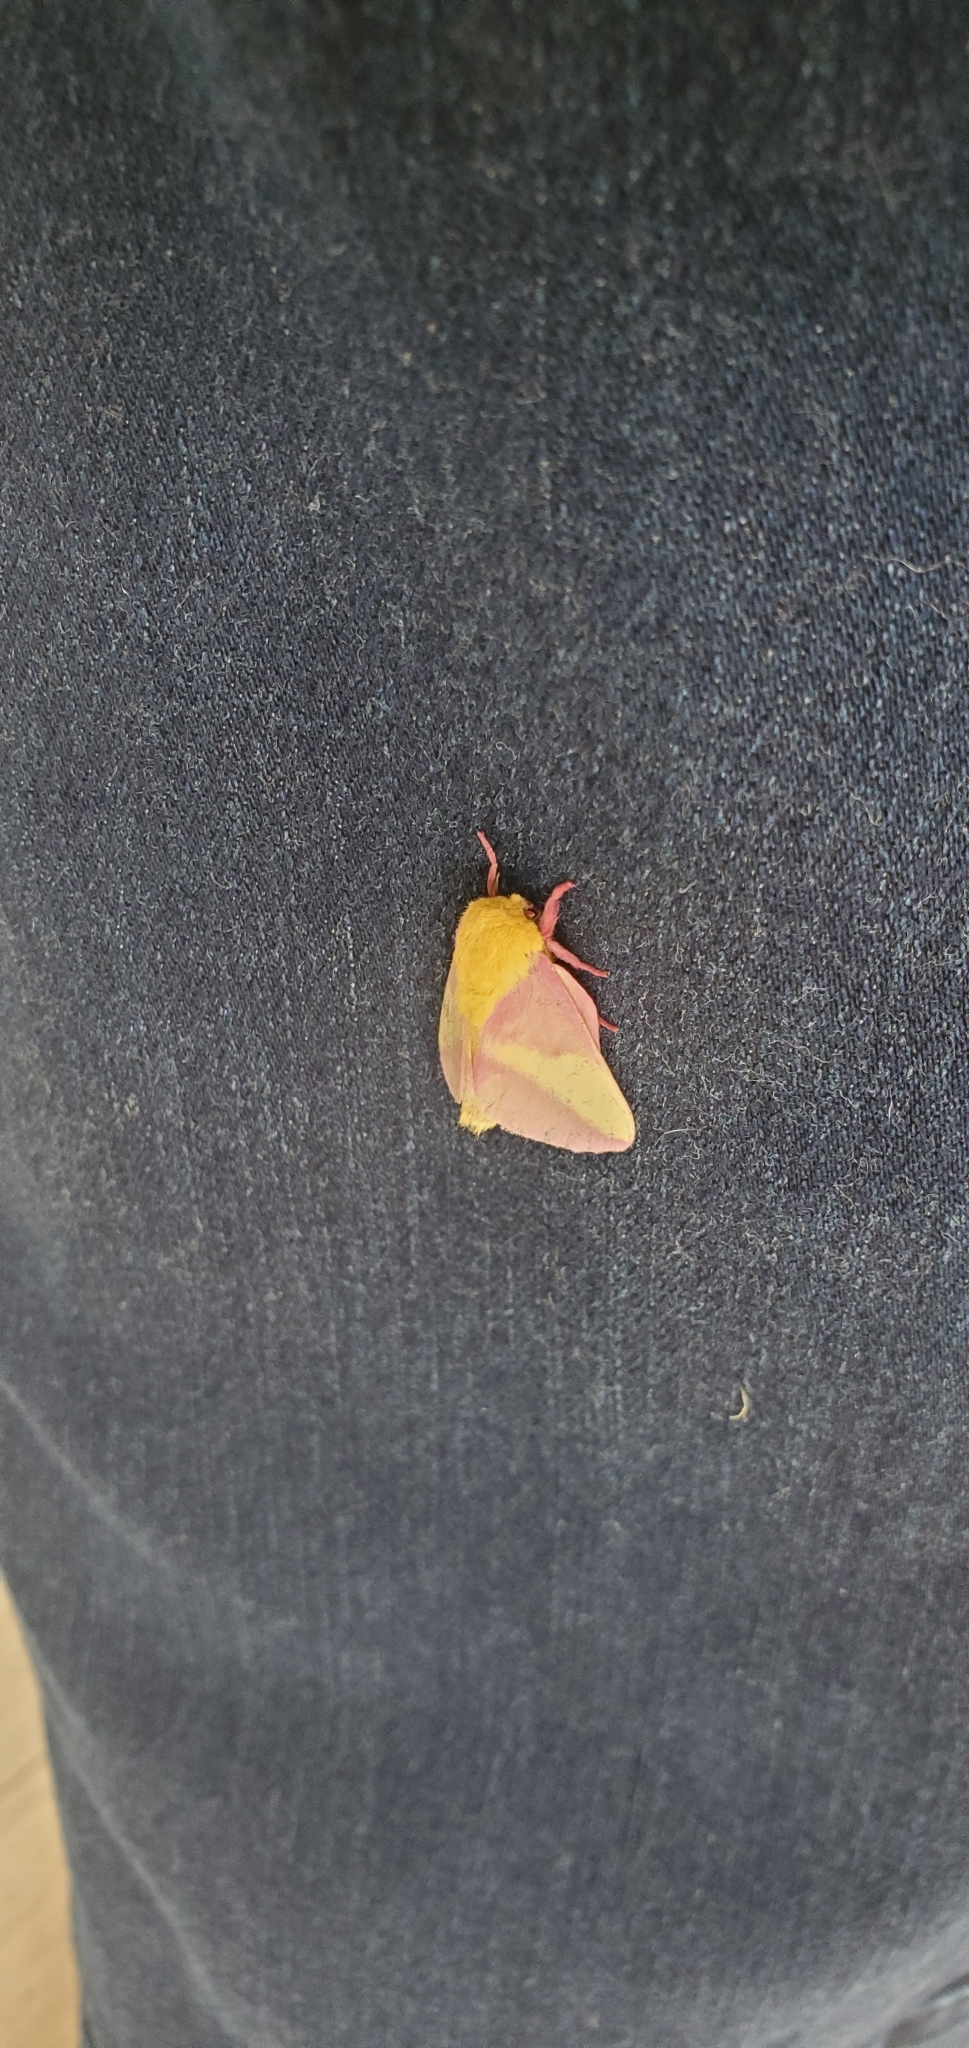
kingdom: Animalia
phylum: Arthropoda
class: Insecta
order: Lepidoptera
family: Saturniidae
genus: Dryocampa
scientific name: Dryocampa rubicunda
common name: Rosy maple moth
